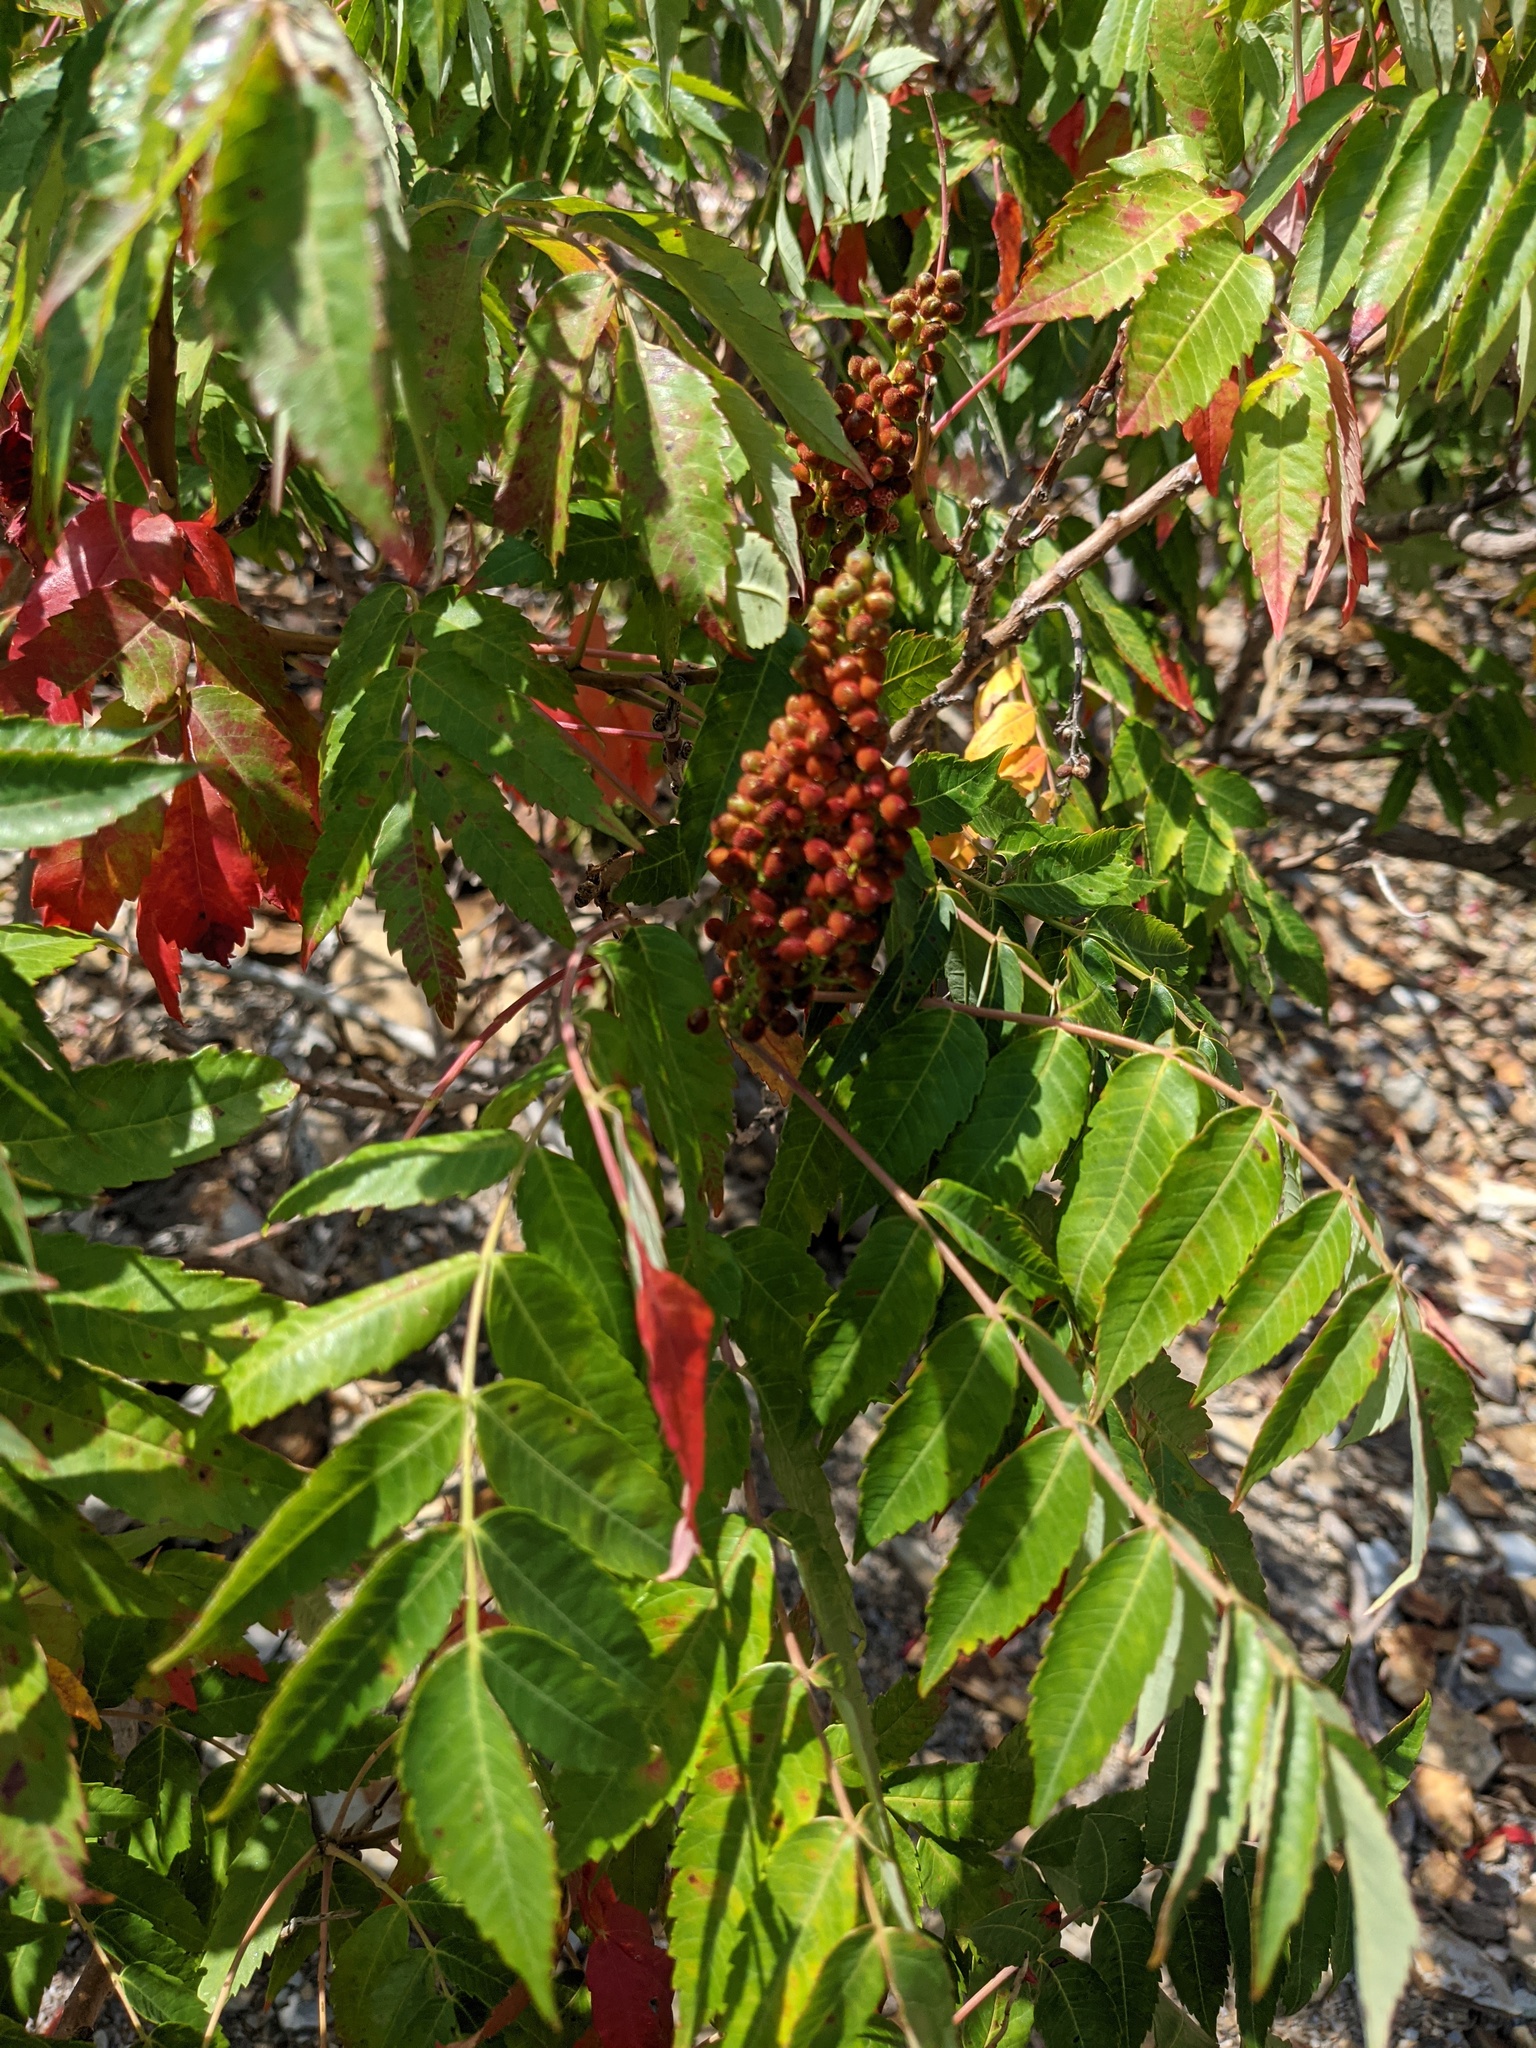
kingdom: Plantae
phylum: Tracheophyta
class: Magnoliopsida
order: Sapindales
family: Anacardiaceae
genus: Rhus
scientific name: Rhus glabra
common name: Scarlet sumac
